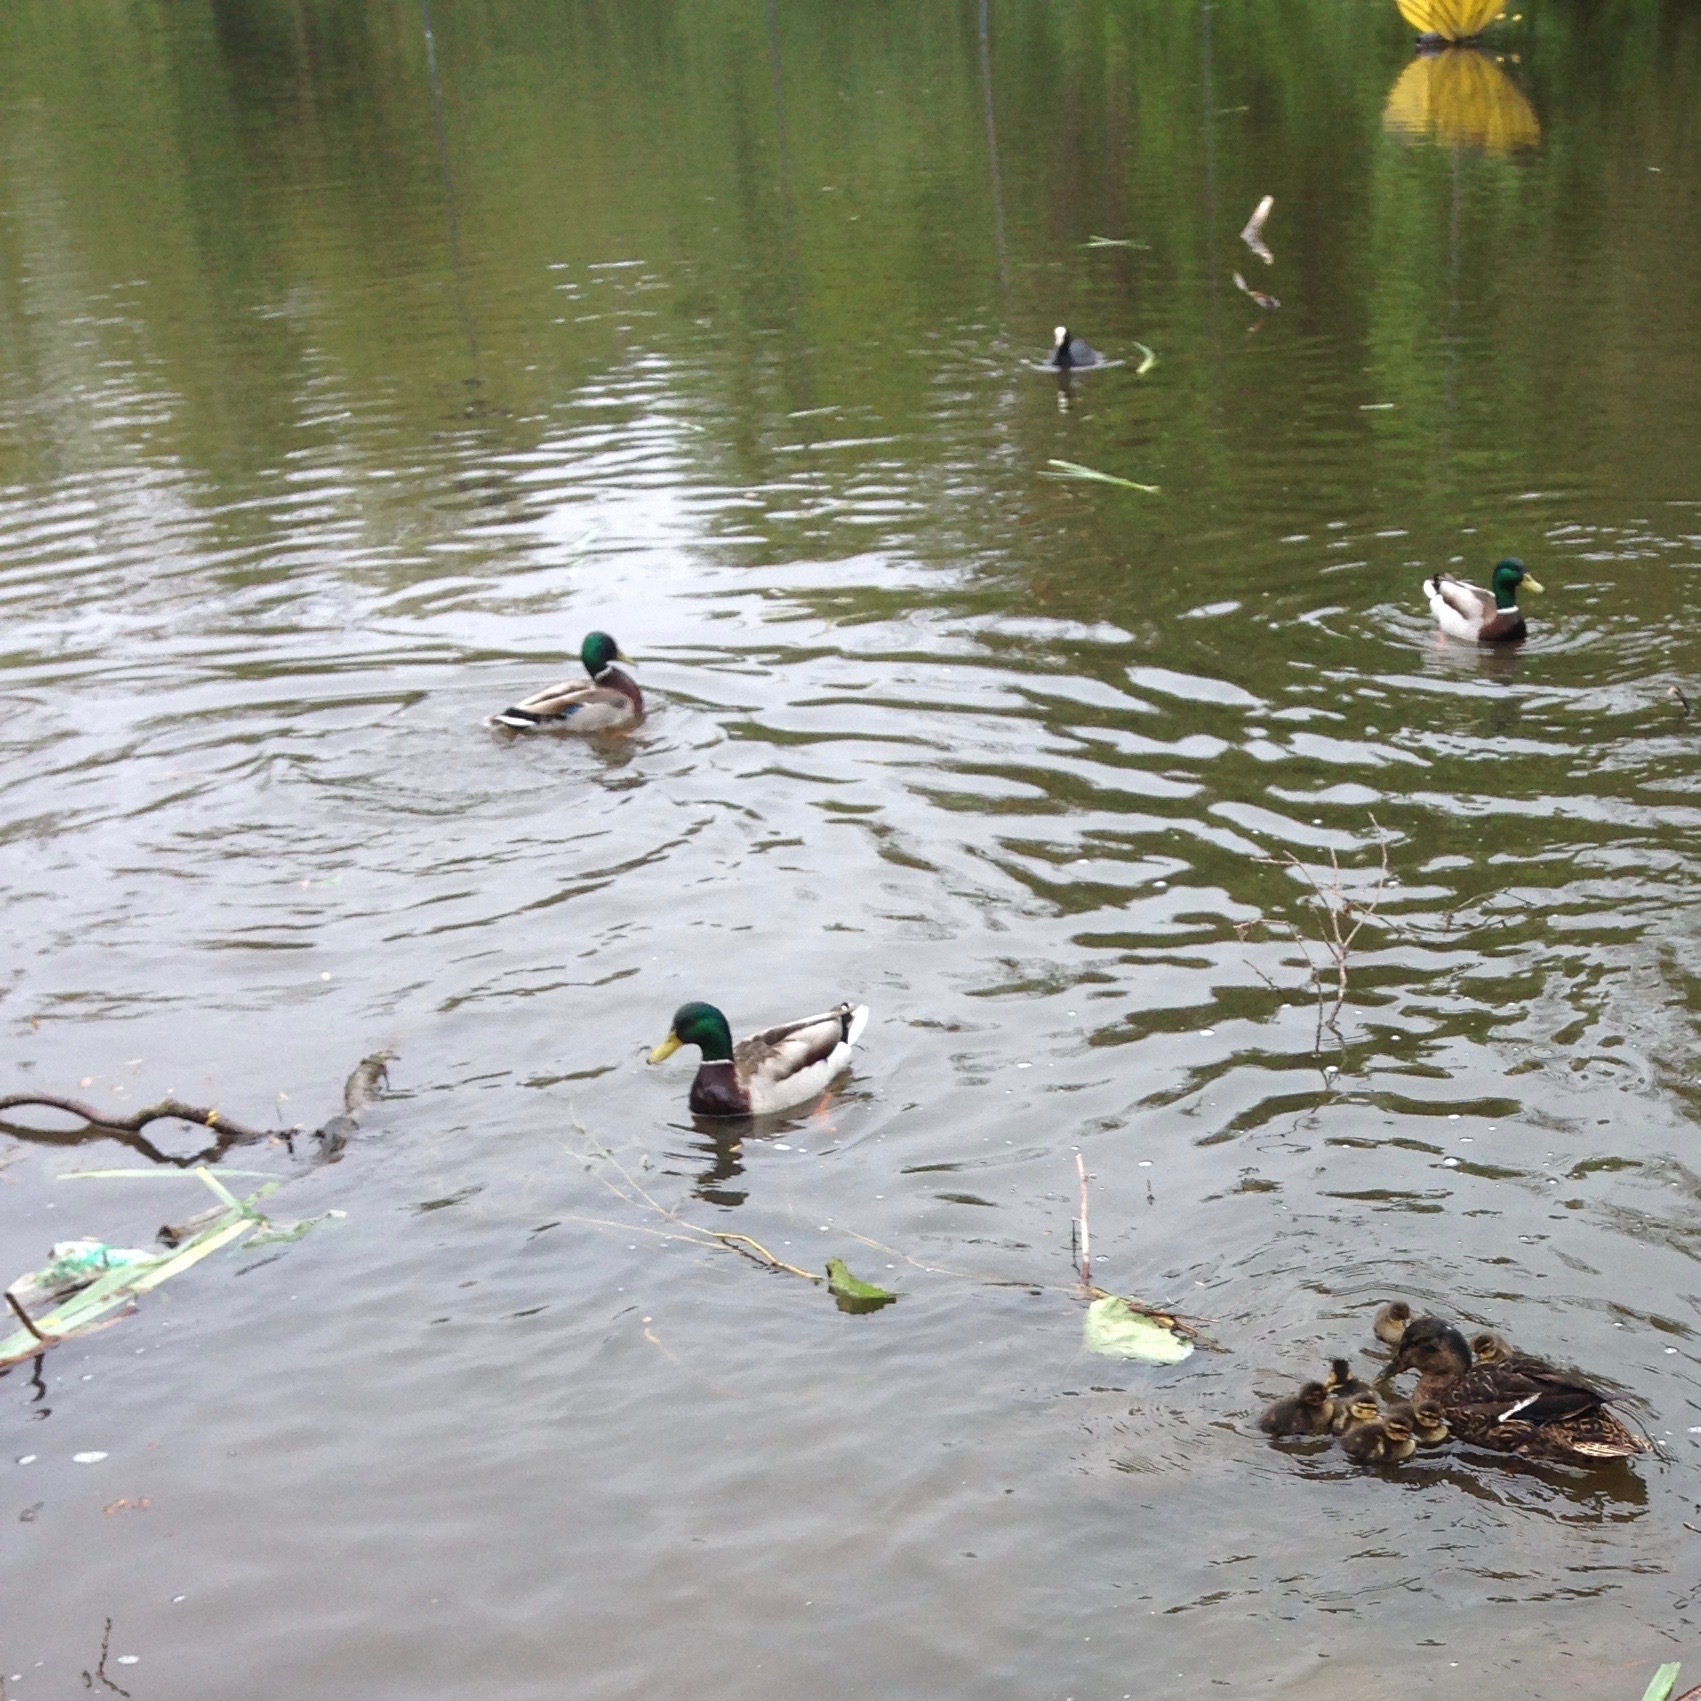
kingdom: Animalia
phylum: Chordata
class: Aves
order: Gruiformes
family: Rallidae
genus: Fulica
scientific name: Fulica atra
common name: Eurasian coot
